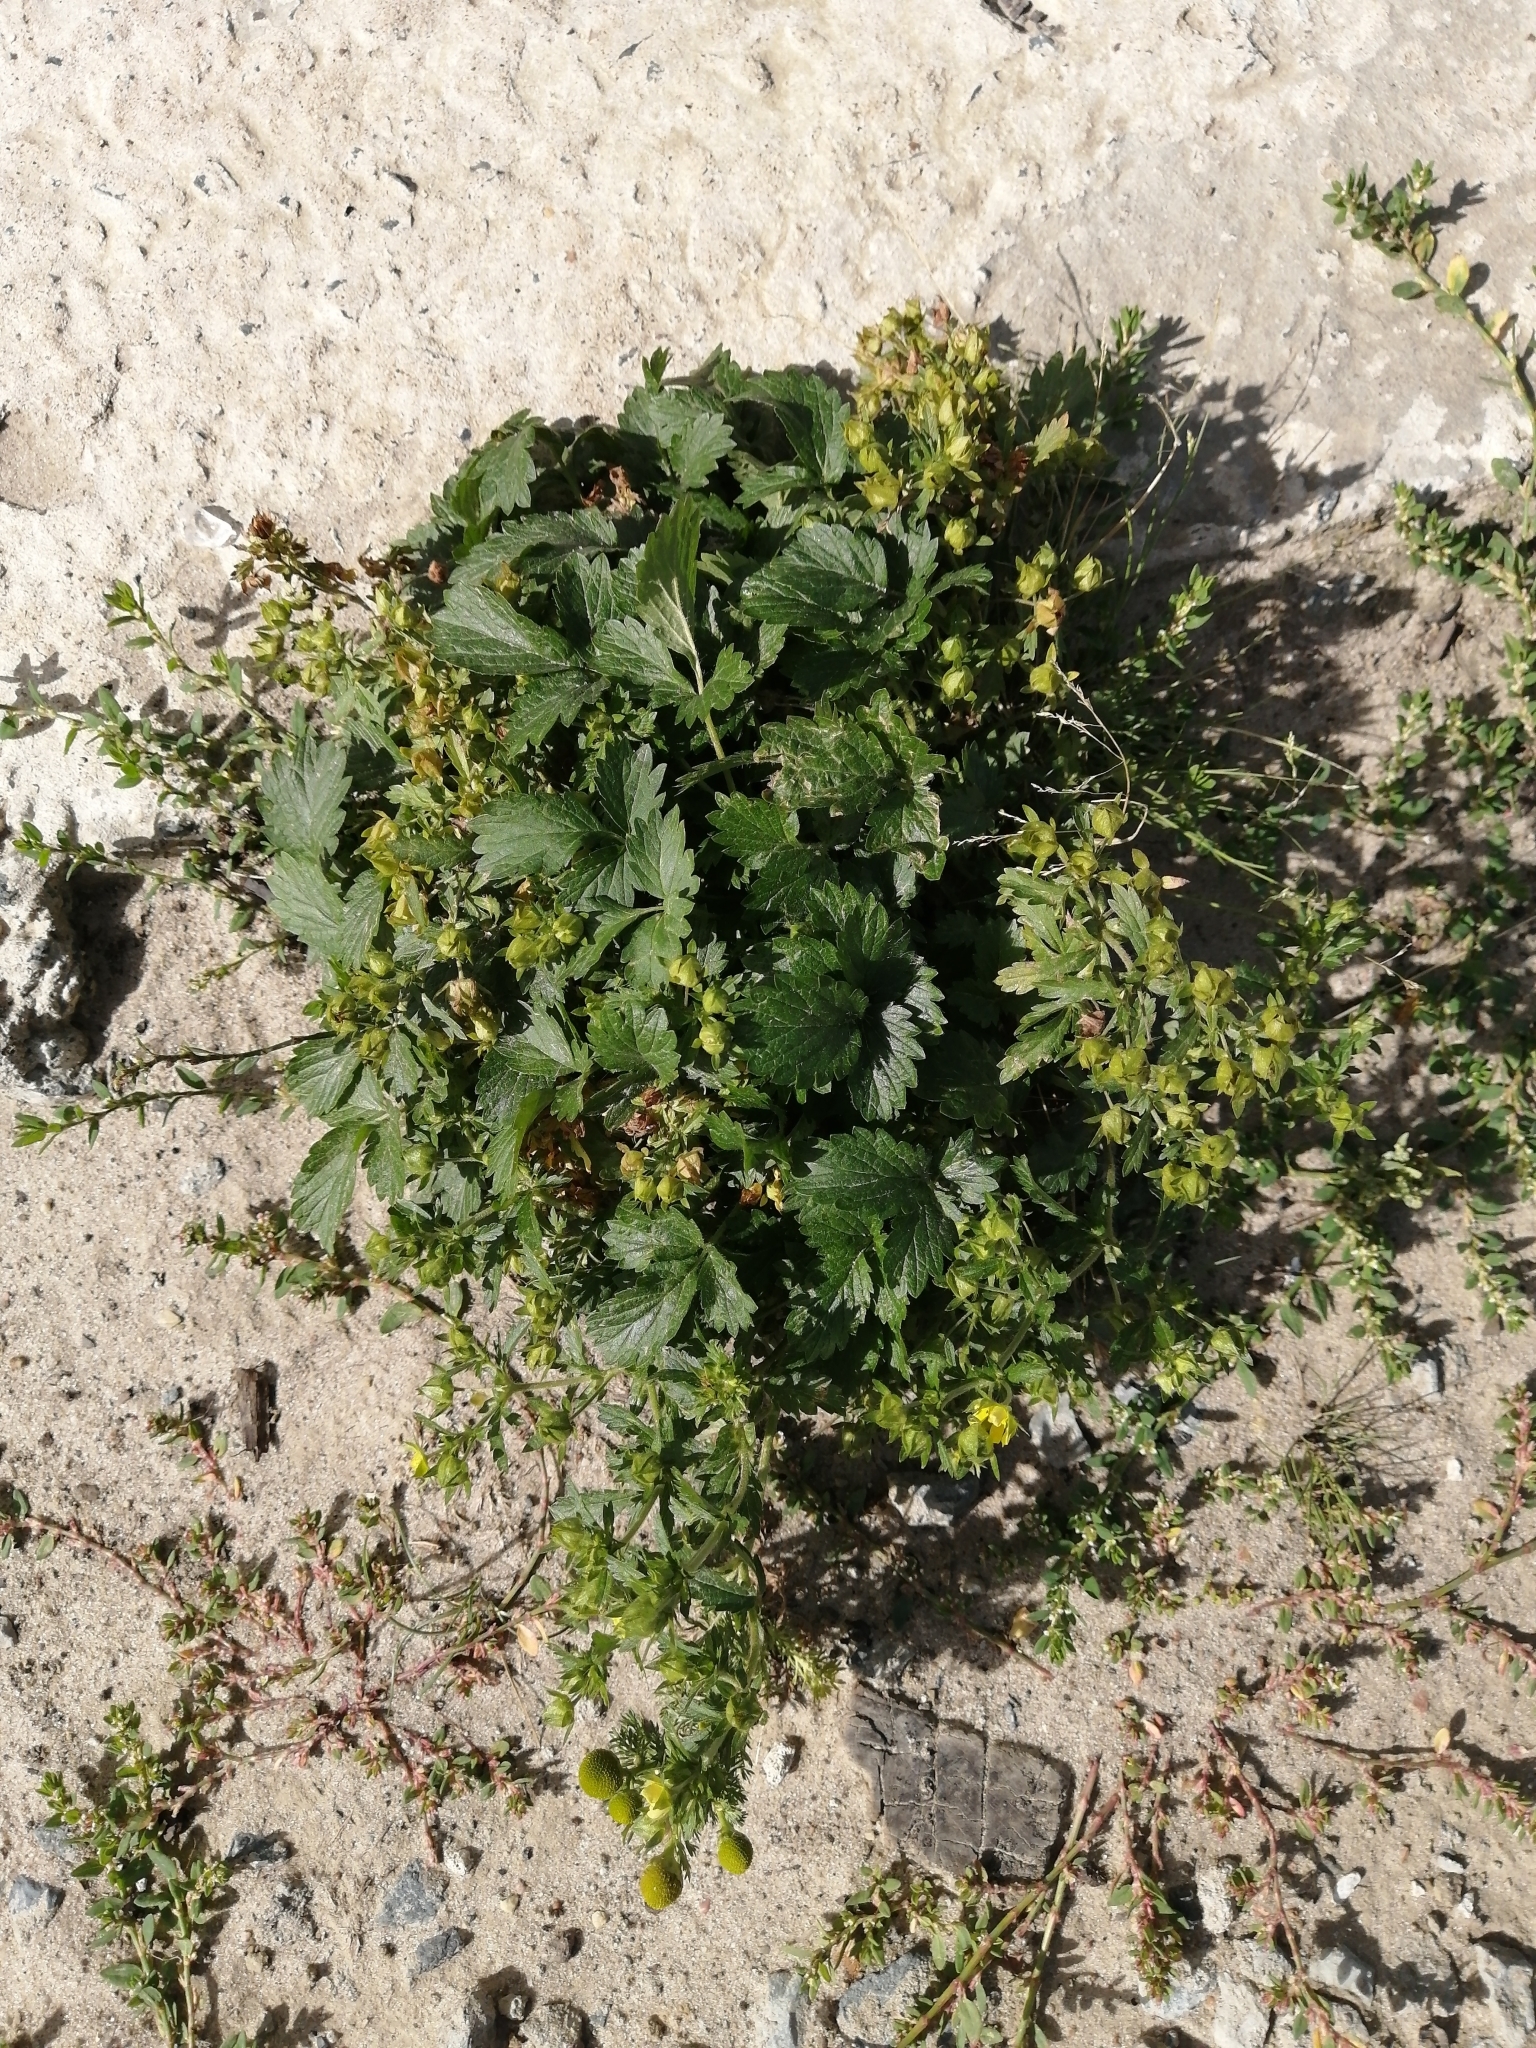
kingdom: Plantae
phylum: Tracheophyta
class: Magnoliopsida
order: Rosales
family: Rosaceae
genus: Potentilla
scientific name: Potentilla norvegica
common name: Ternate-leaved cinquefoil
